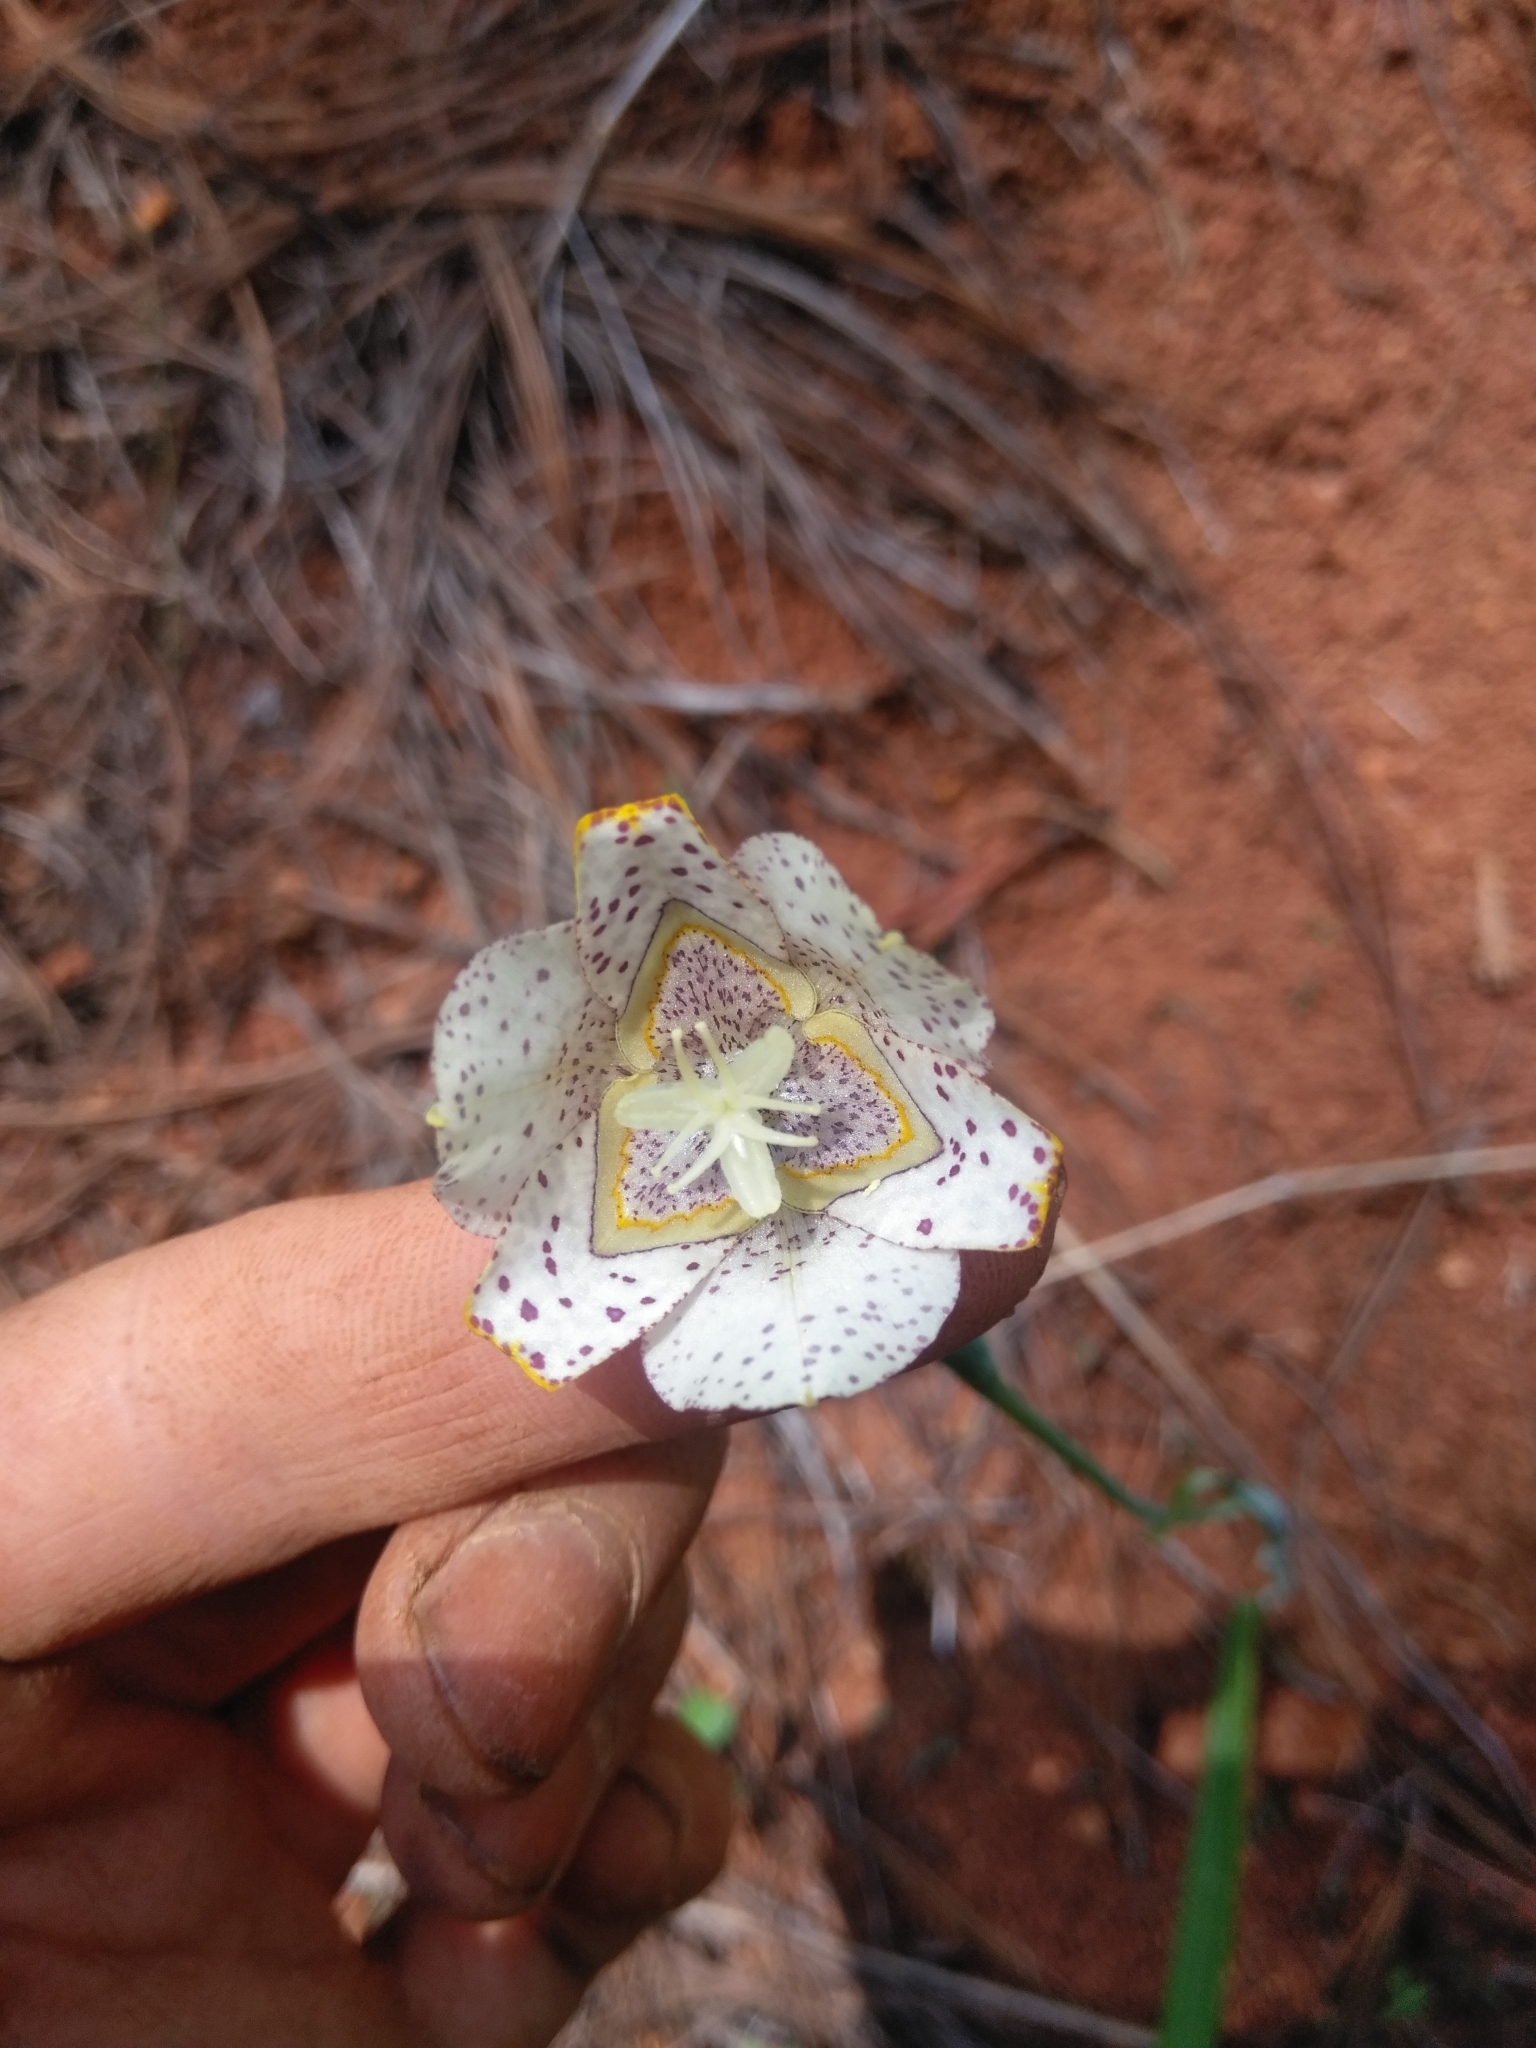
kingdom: Plantae
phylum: Tracheophyta
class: Liliopsida
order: Asparagales
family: Iridaceae
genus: Tigridia
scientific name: Tigridia meleagris
